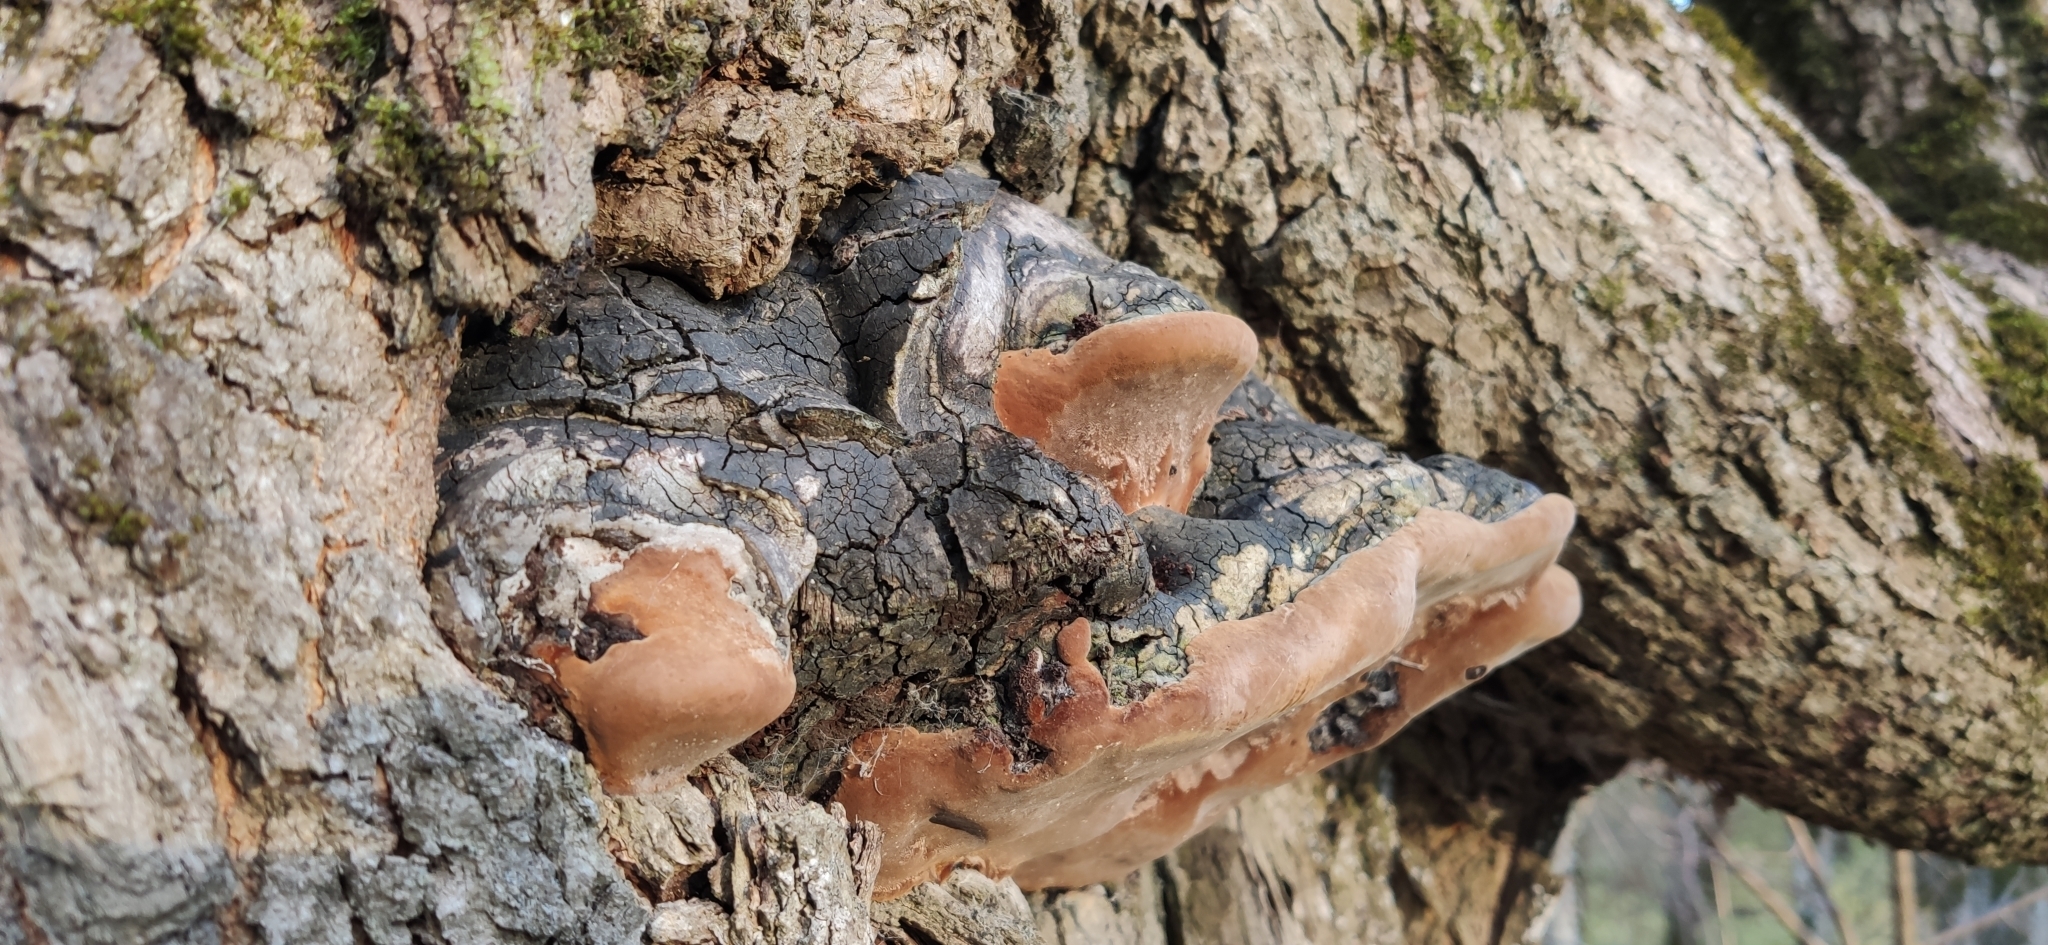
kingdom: Fungi
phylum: Basidiomycota
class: Agaricomycetes
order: Hymenochaetales
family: Hymenochaetaceae
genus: Fomitiporia
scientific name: Fomitiporia robusta
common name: Robust bracket
